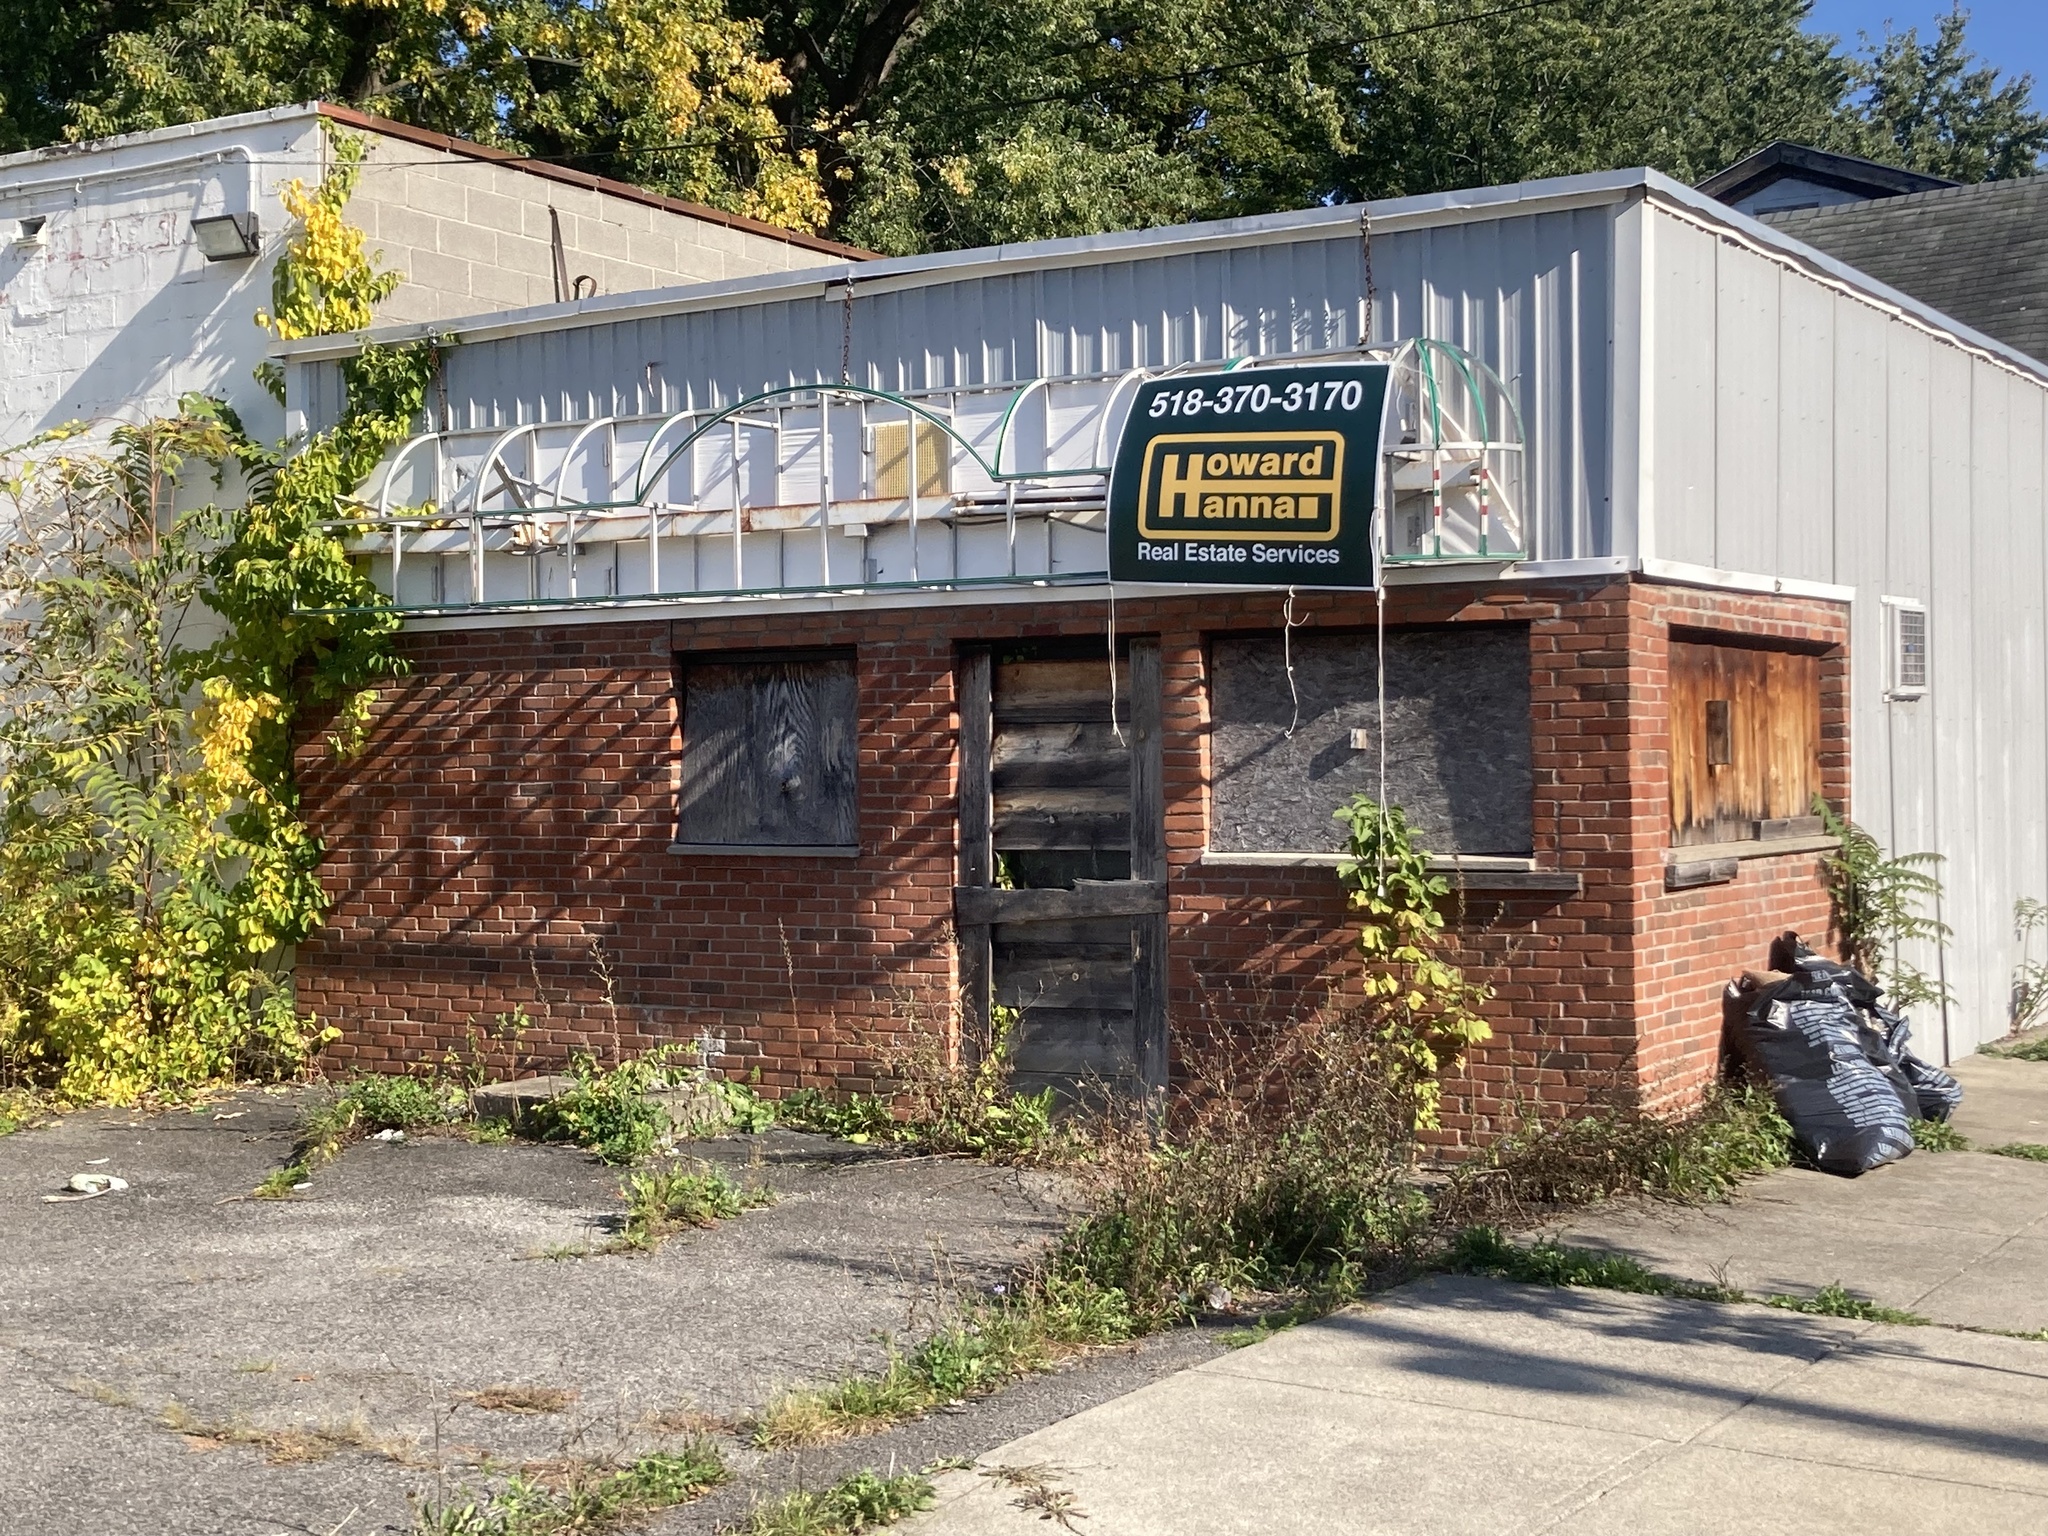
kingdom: Plantae
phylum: Tracheophyta
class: Magnoliopsida
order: Fabales
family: Fabaceae
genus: Trifolium
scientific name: Trifolium pratense
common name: Red clover
